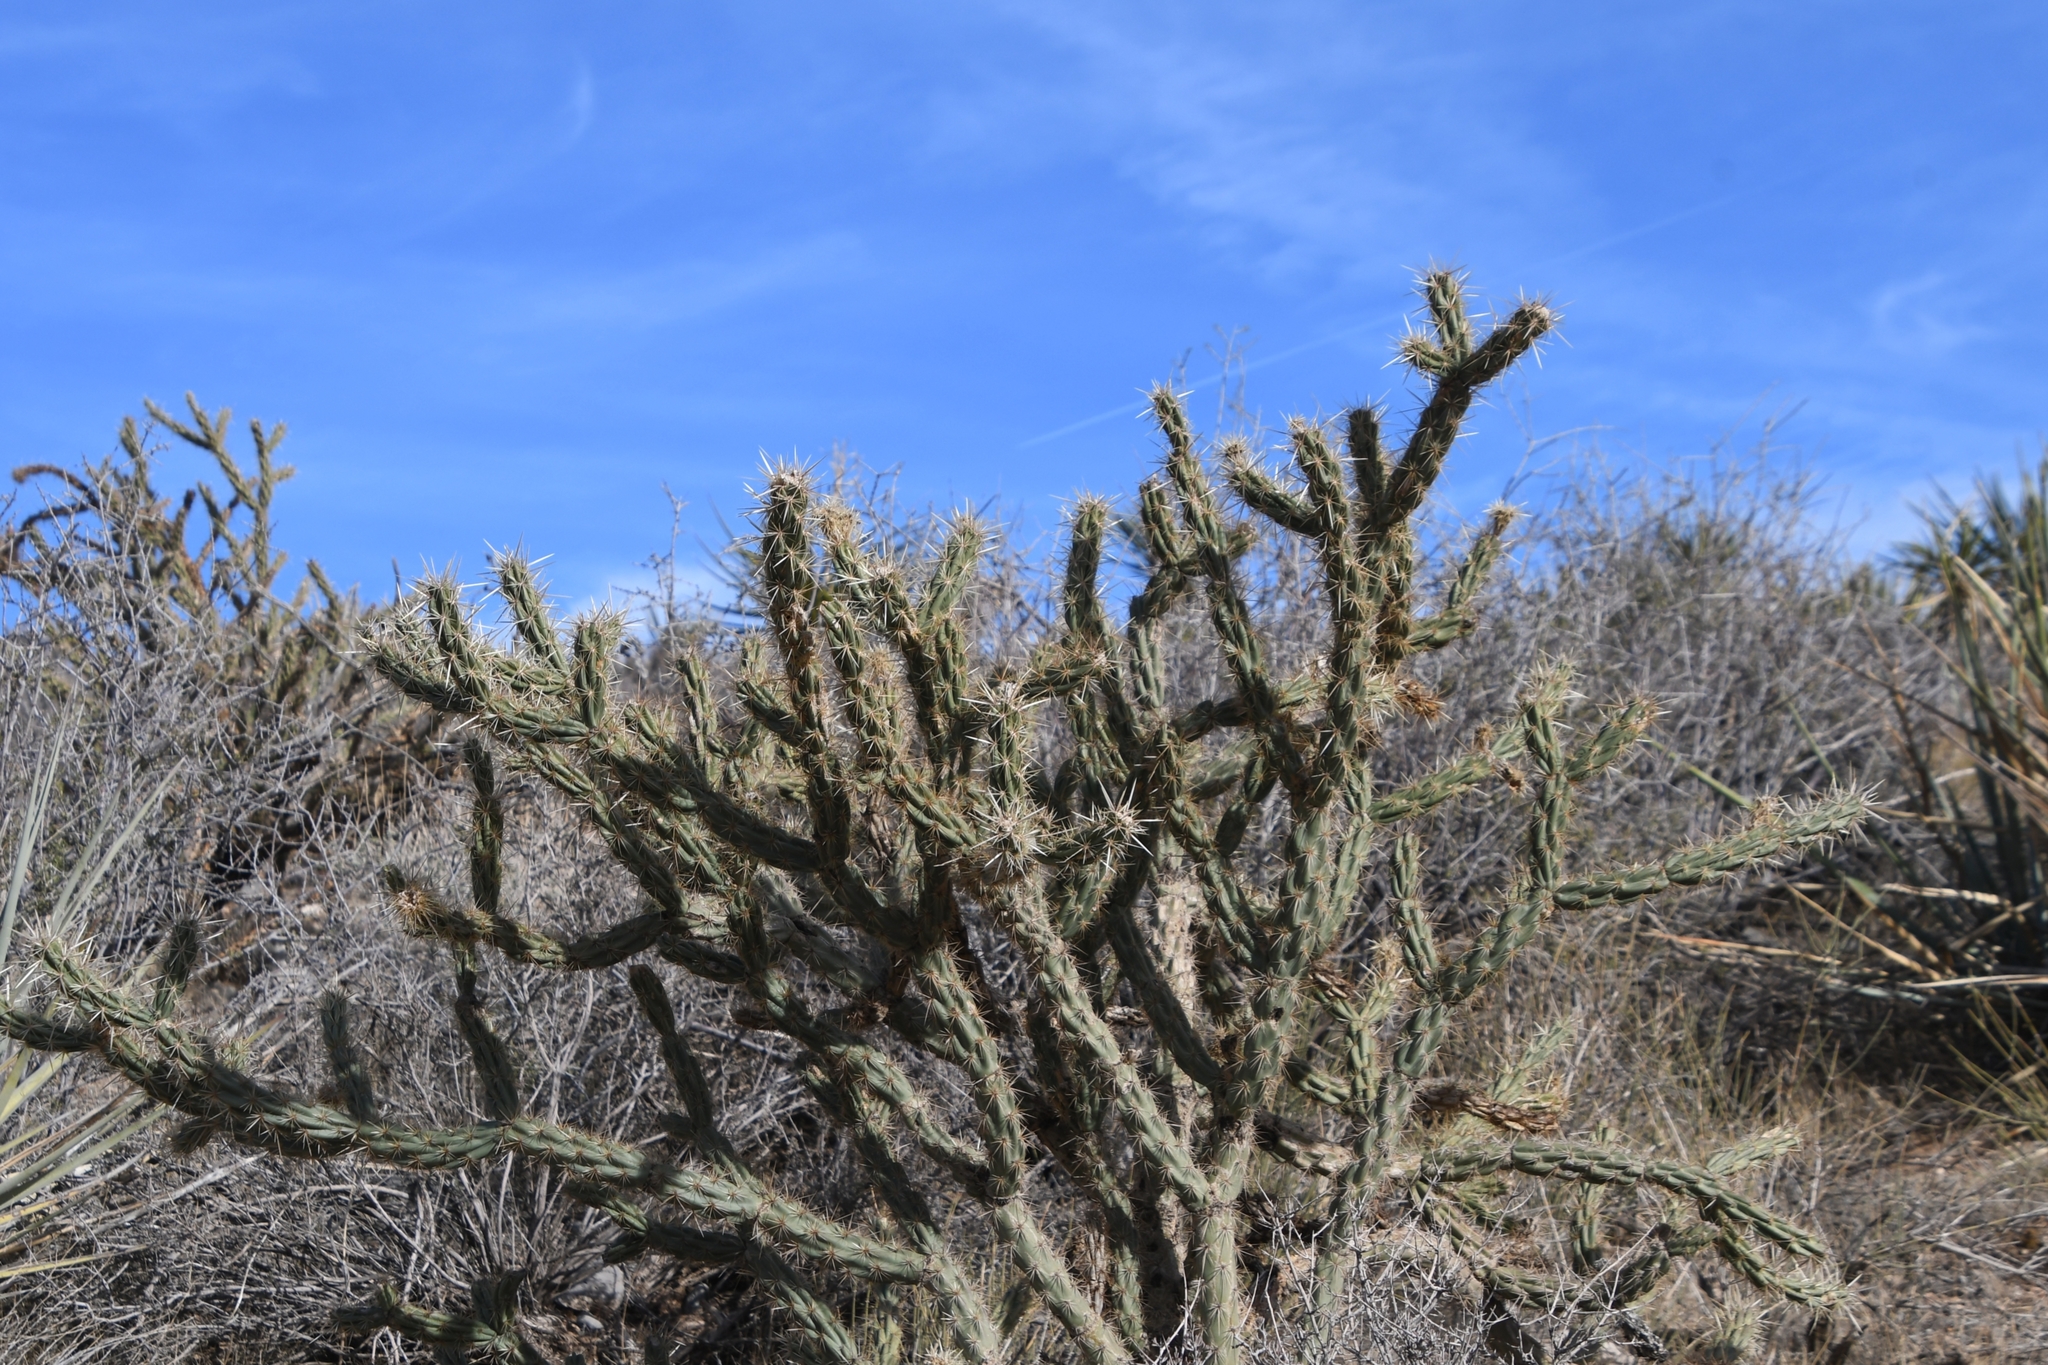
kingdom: Plantae
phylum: Tracheophyta
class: Magnoliopsida
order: Caryophyllales
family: Cactaceae
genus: Cylindropuntia
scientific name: Cylindropuntia acanthocarpa
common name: Buckhorn cholla
